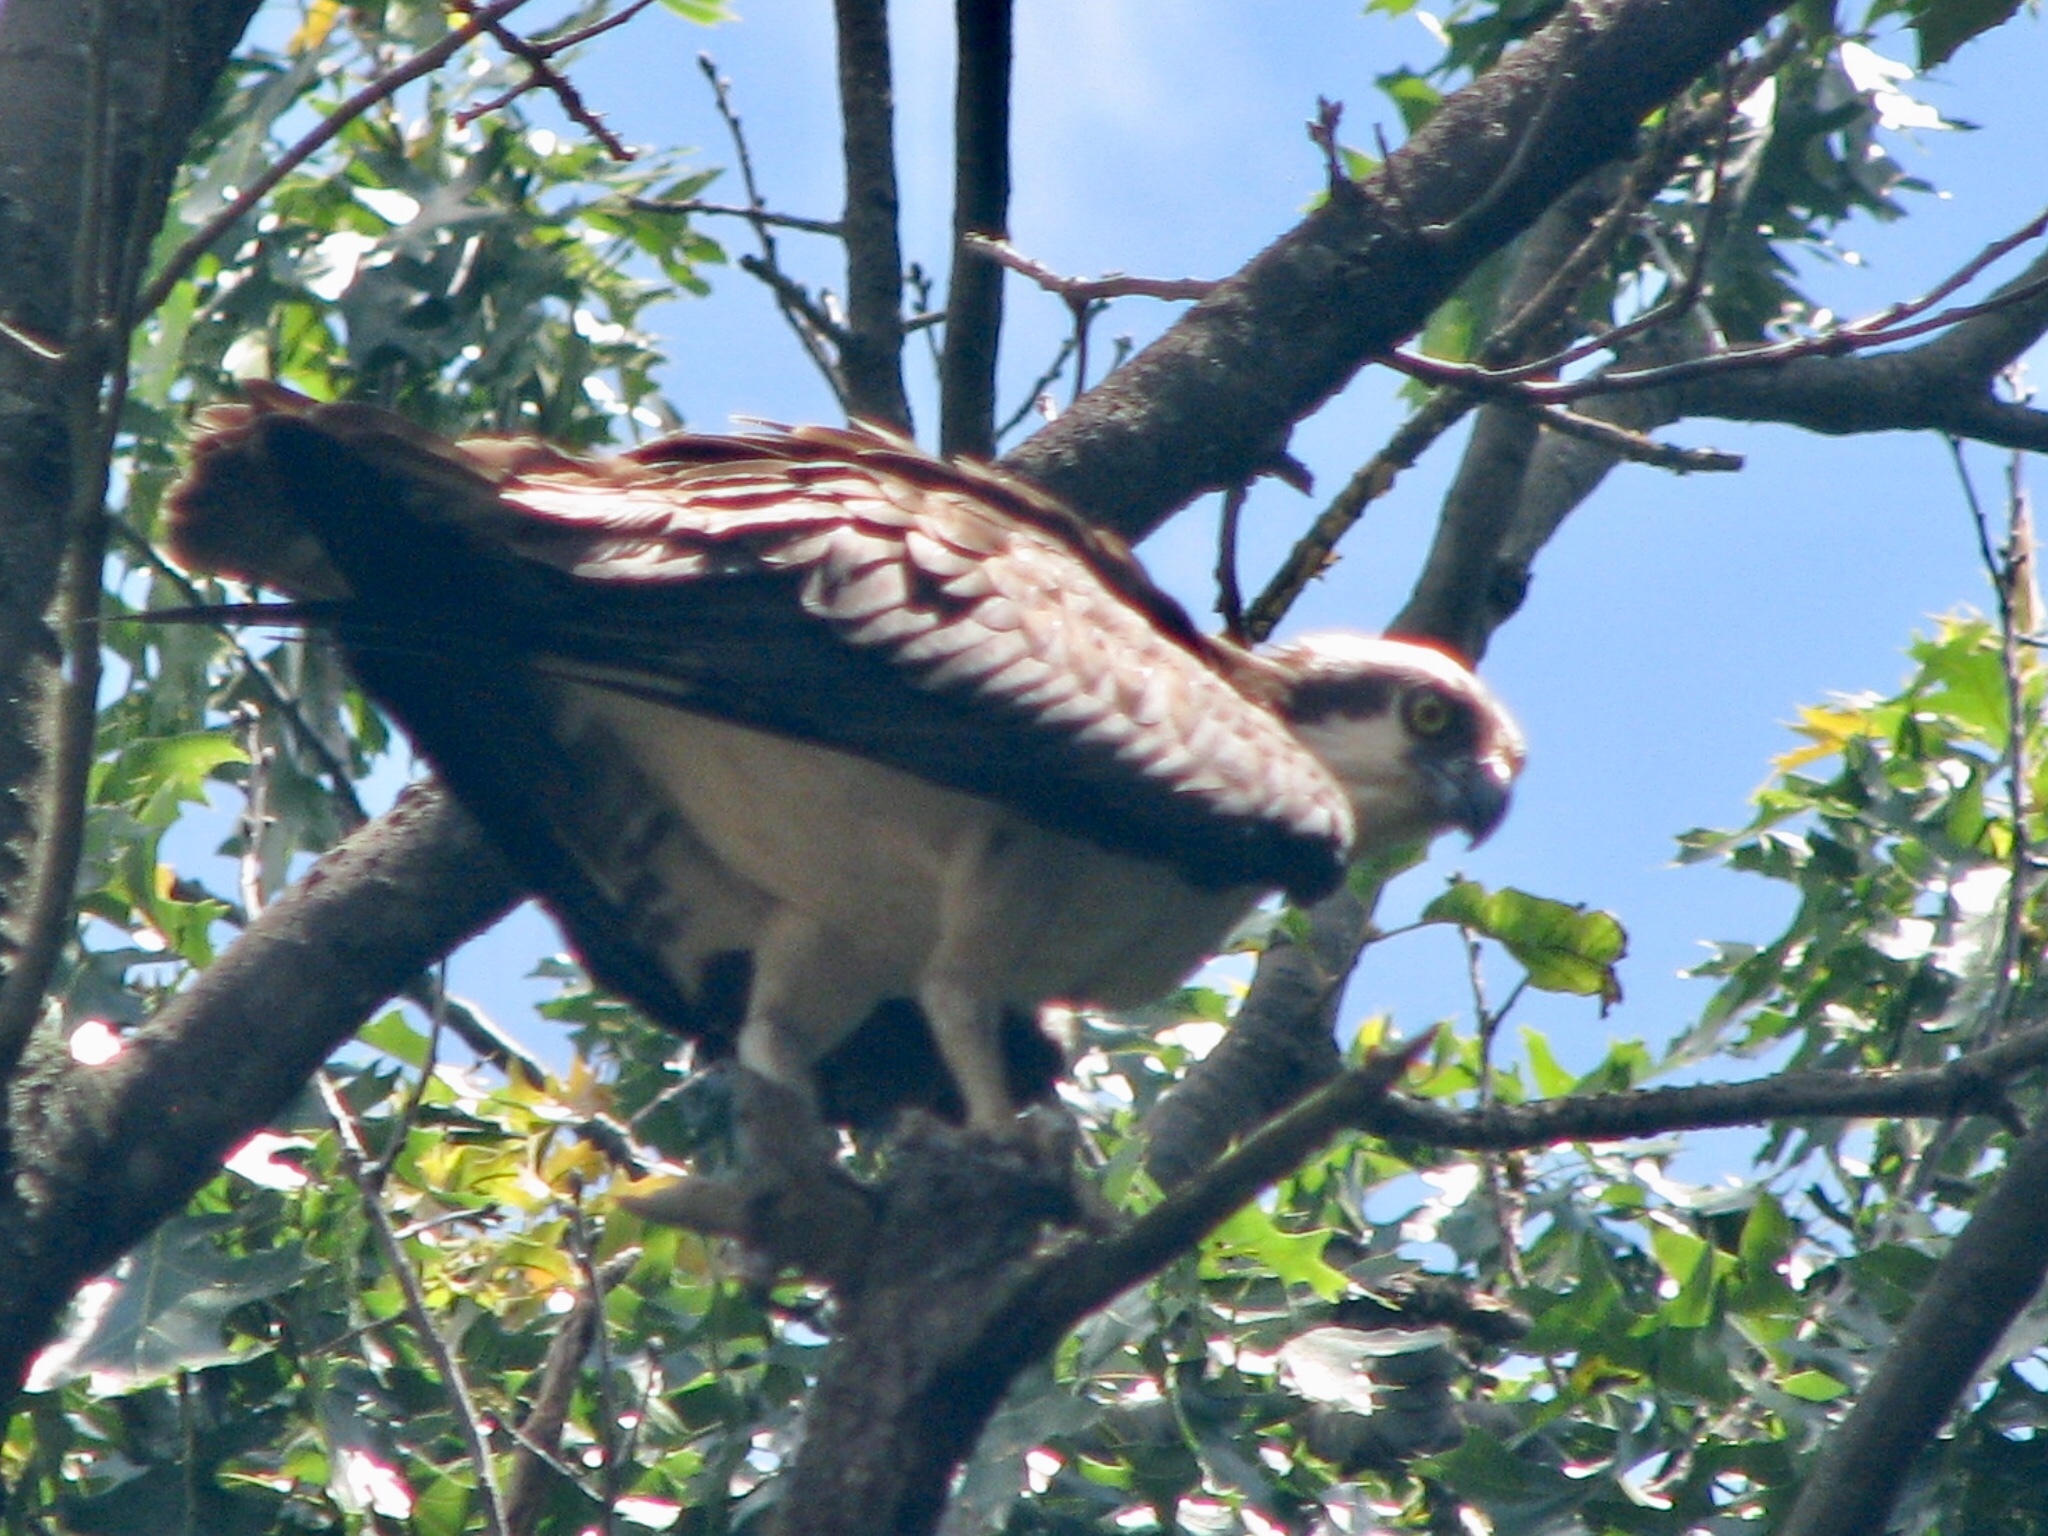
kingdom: Animalia
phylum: Chordata
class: Aves
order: Accipitriformes
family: Pandionidae
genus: Pandion
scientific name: Pandion haliaetus
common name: Osprey
